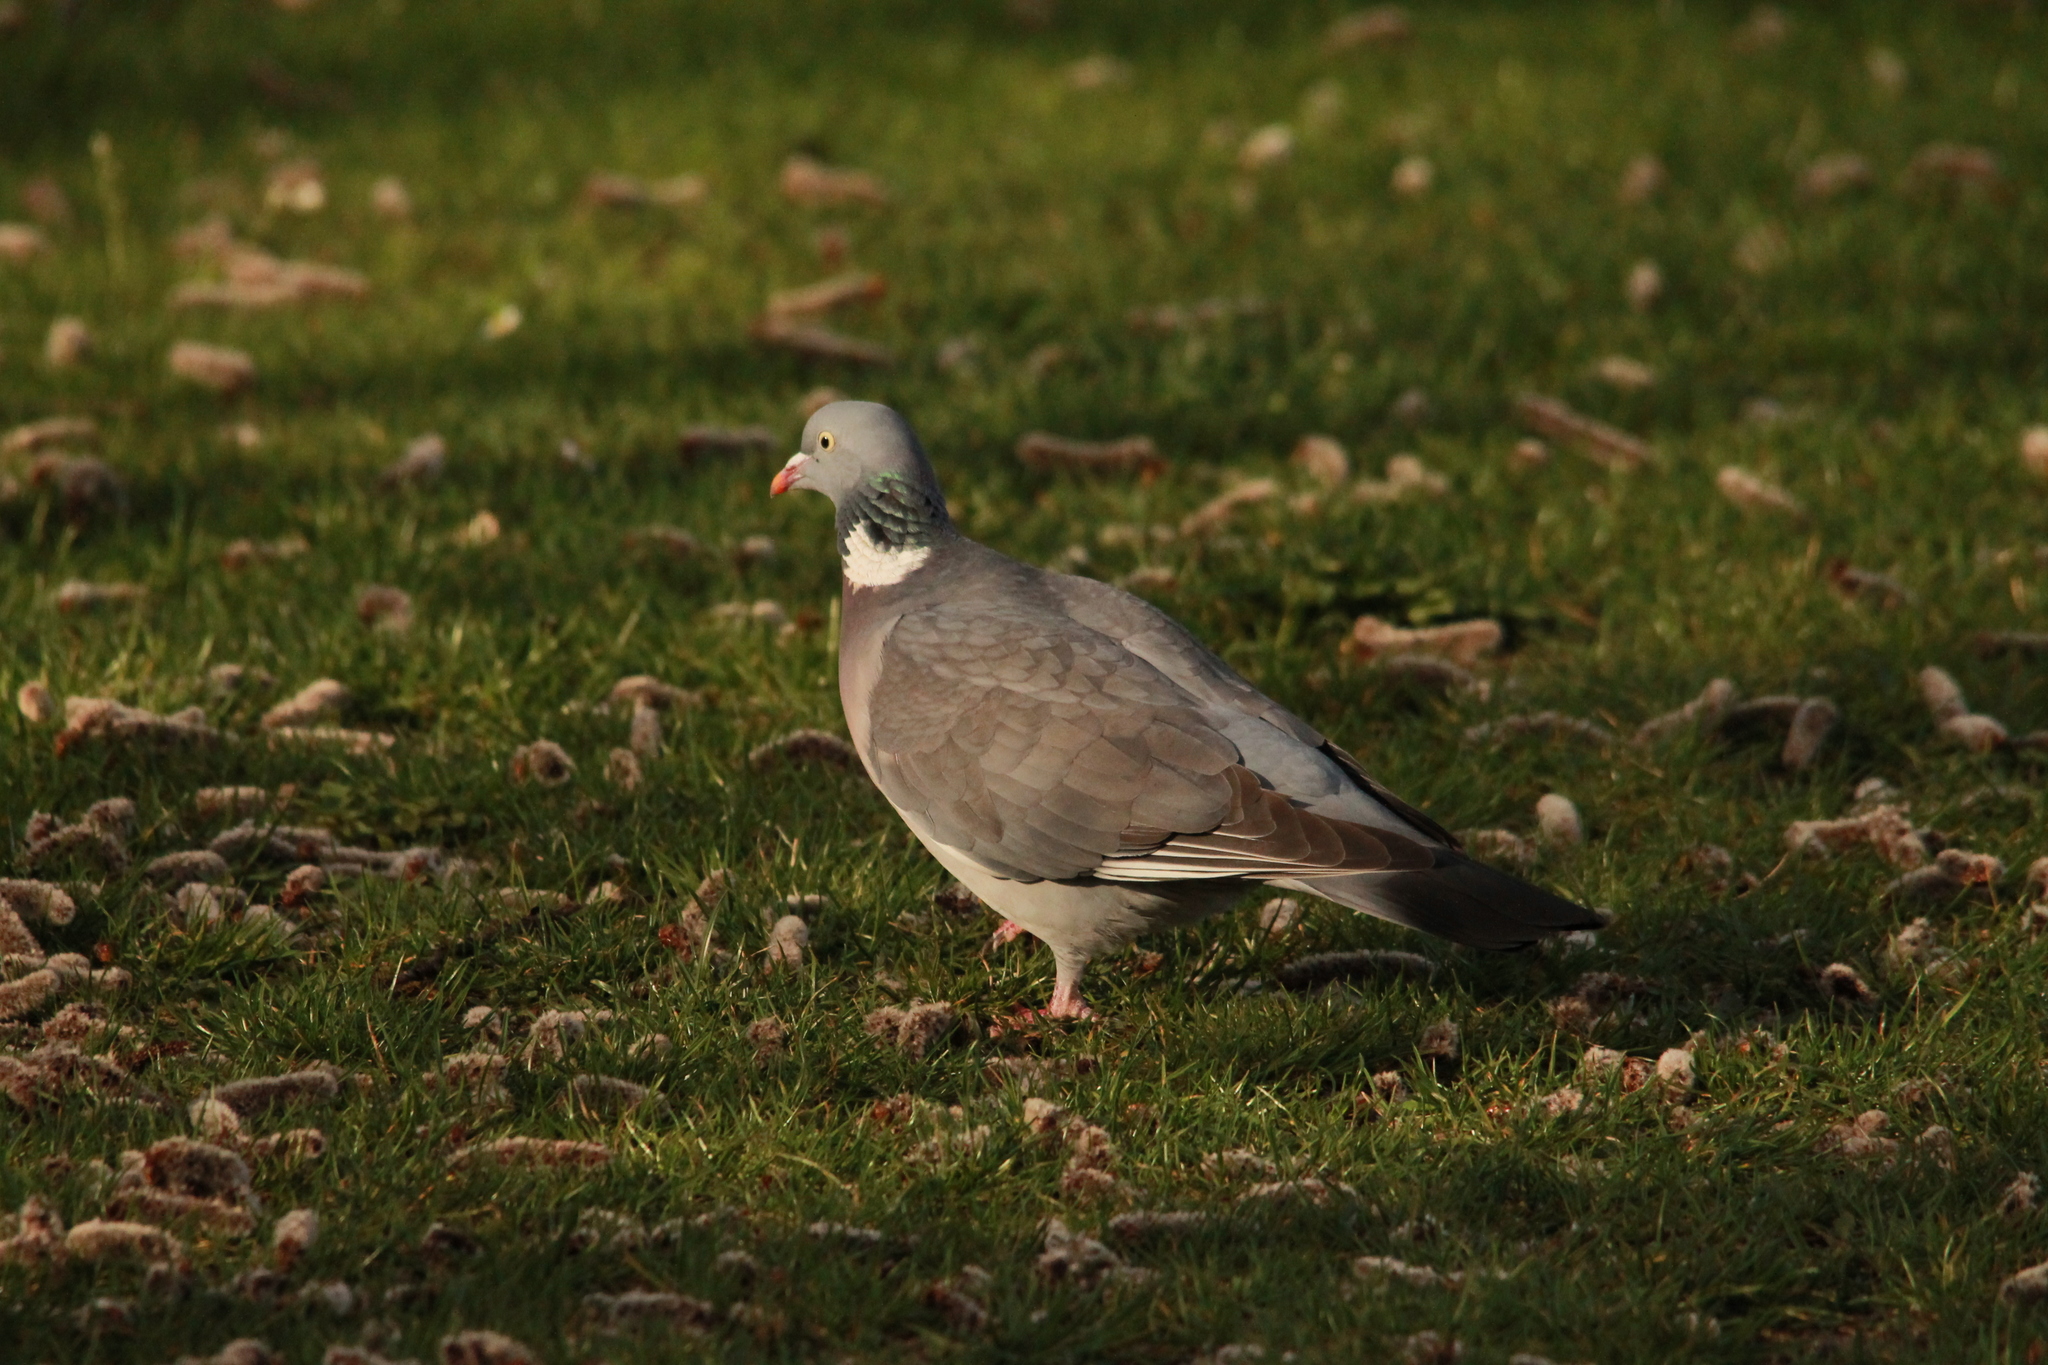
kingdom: Animalia
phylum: Chordata
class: Aves
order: Columbiformes
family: Columbidae
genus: Columba
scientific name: Columba palumbus
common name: Common wood pigeon
